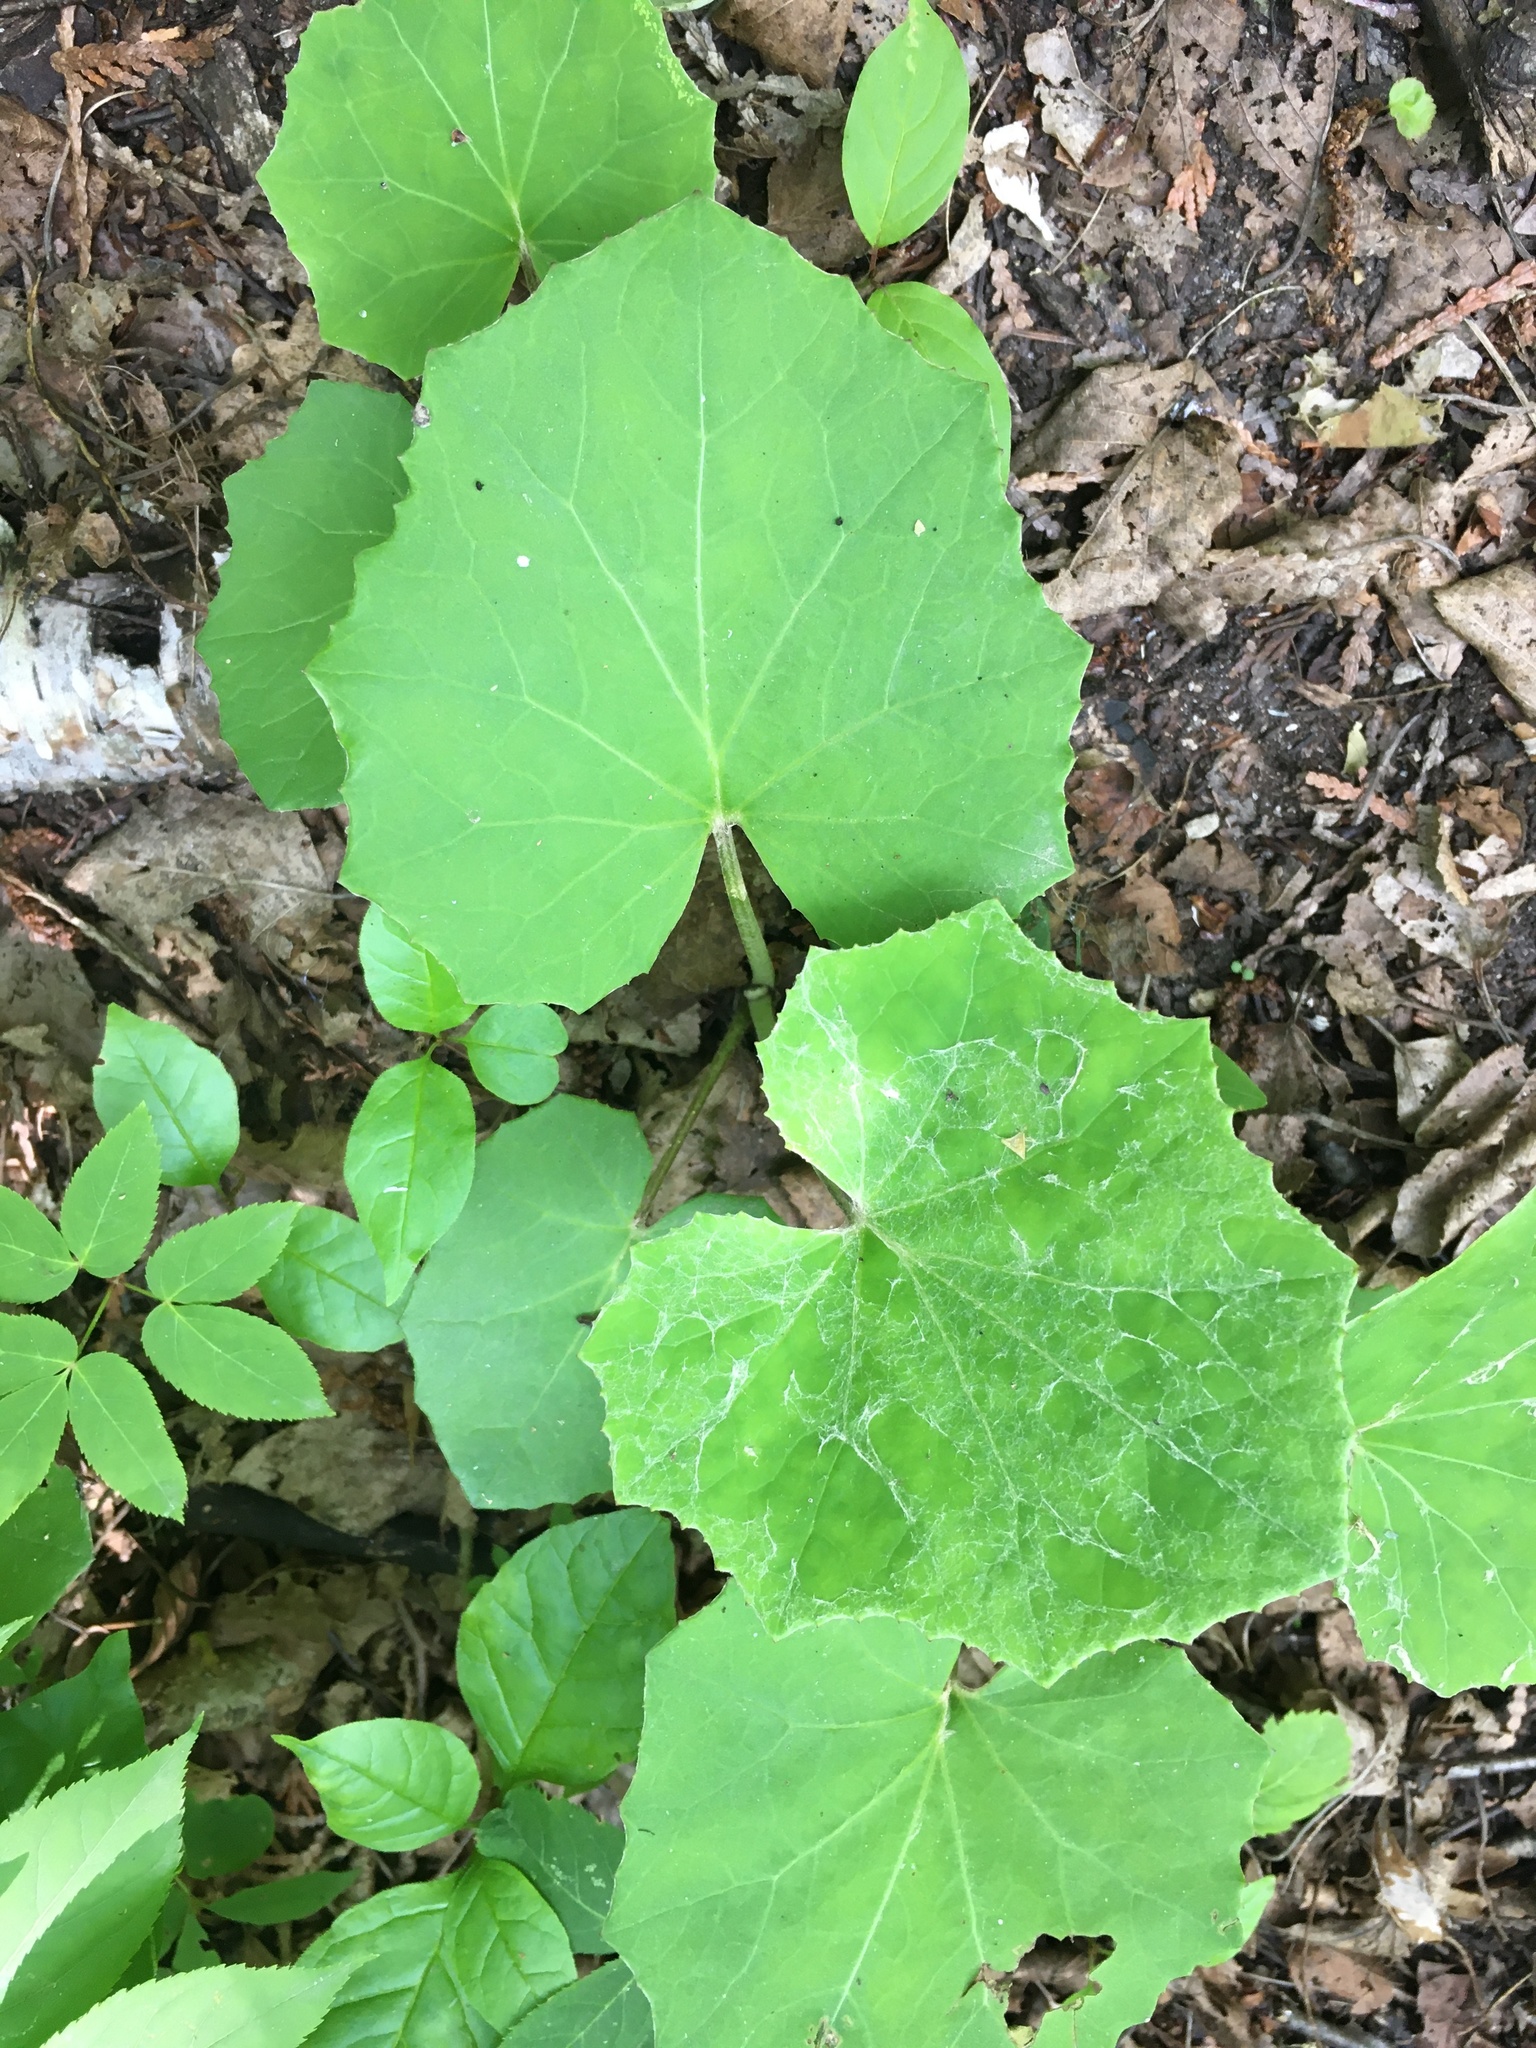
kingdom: Plantae
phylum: Tracheophyta
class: Magnoliopsida
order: Asterales
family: Asteraceae
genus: Tussilago
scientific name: Tussilago farfara
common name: Coltsfoot
